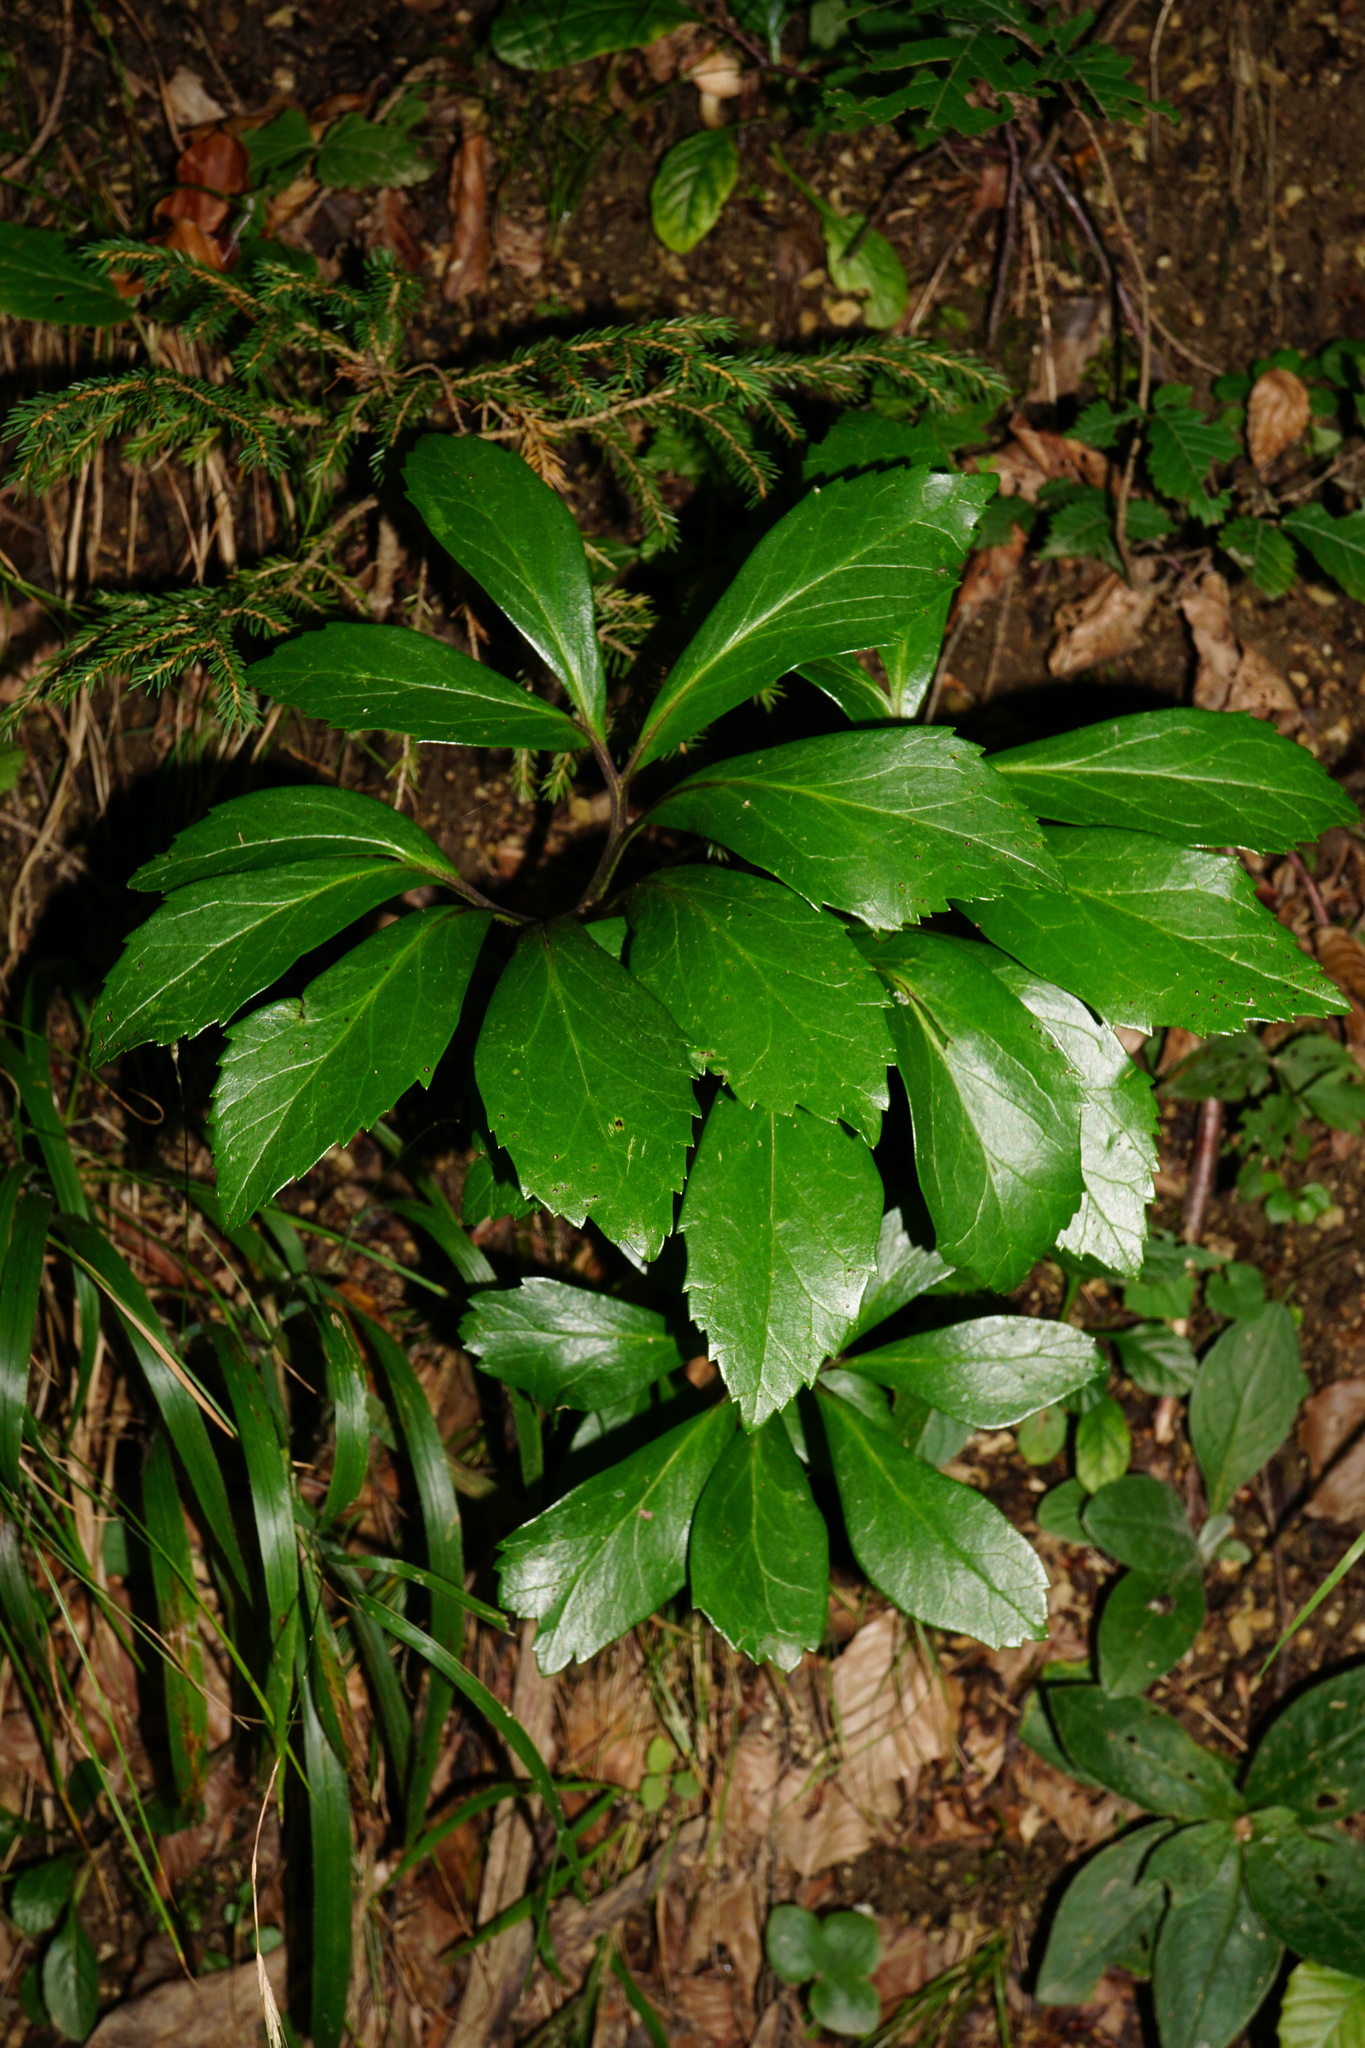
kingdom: Plantae
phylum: Tracheophyta
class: Magnoliopsida
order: Ranunculales
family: Ranunculaceae
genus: Helleborus
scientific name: Helleborus niger
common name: Black hellebore
